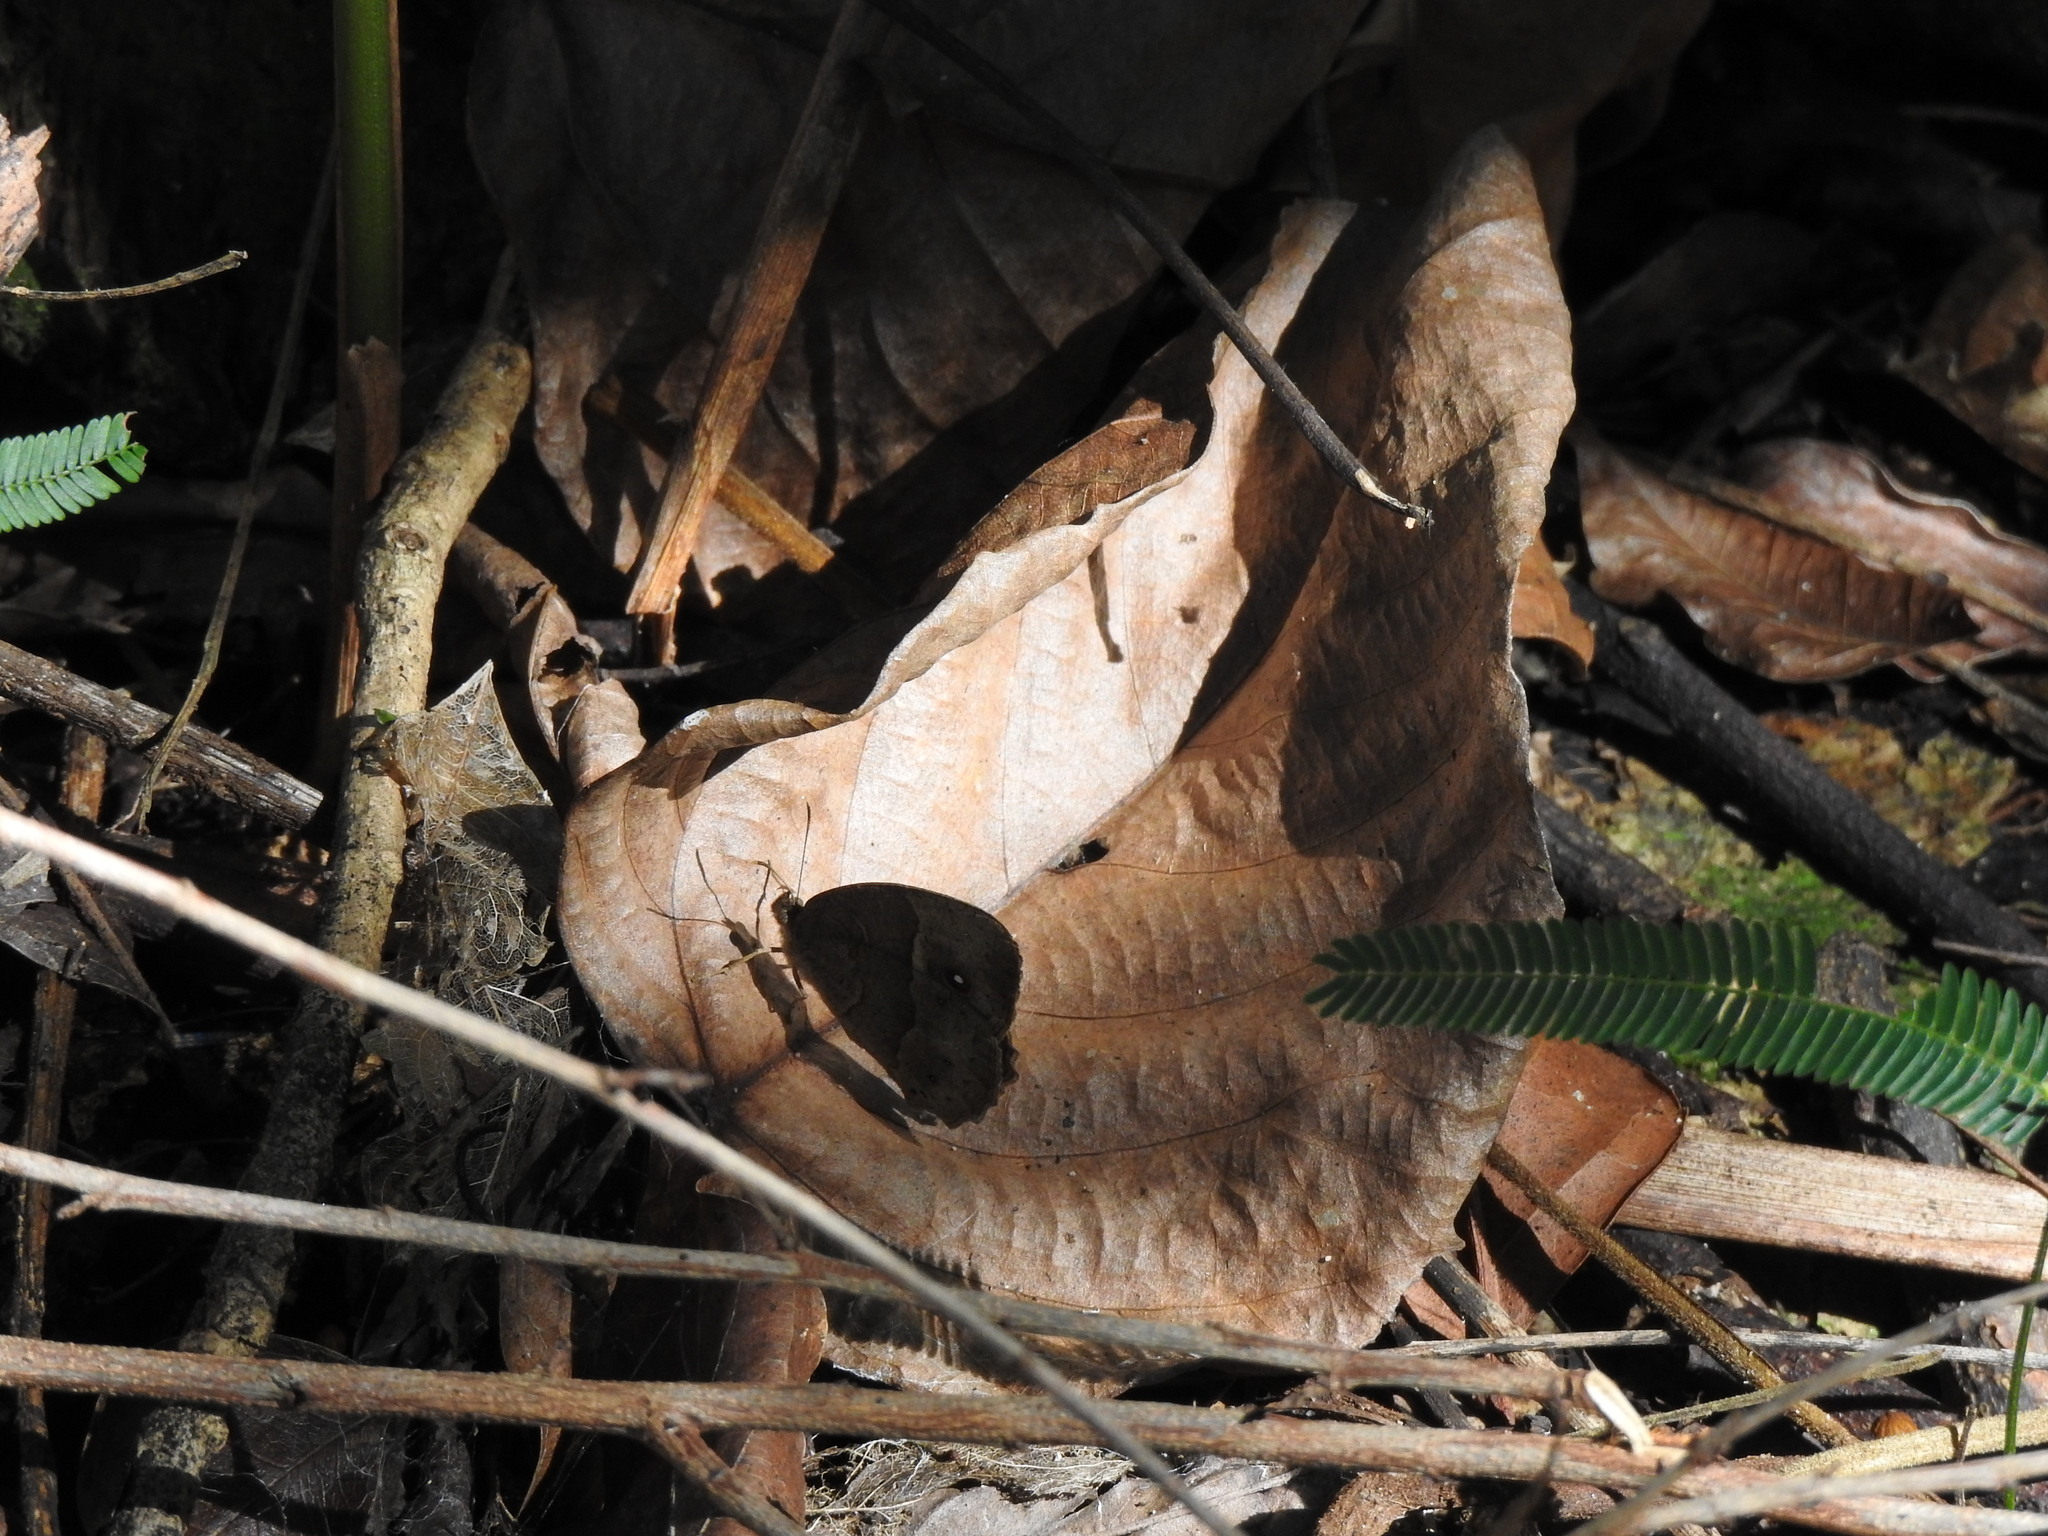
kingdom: Animalia
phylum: Arthropoda
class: Insecta
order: Lepidoptera
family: Nymphalidae
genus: Mycalesis
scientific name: Mycalesis anynana
